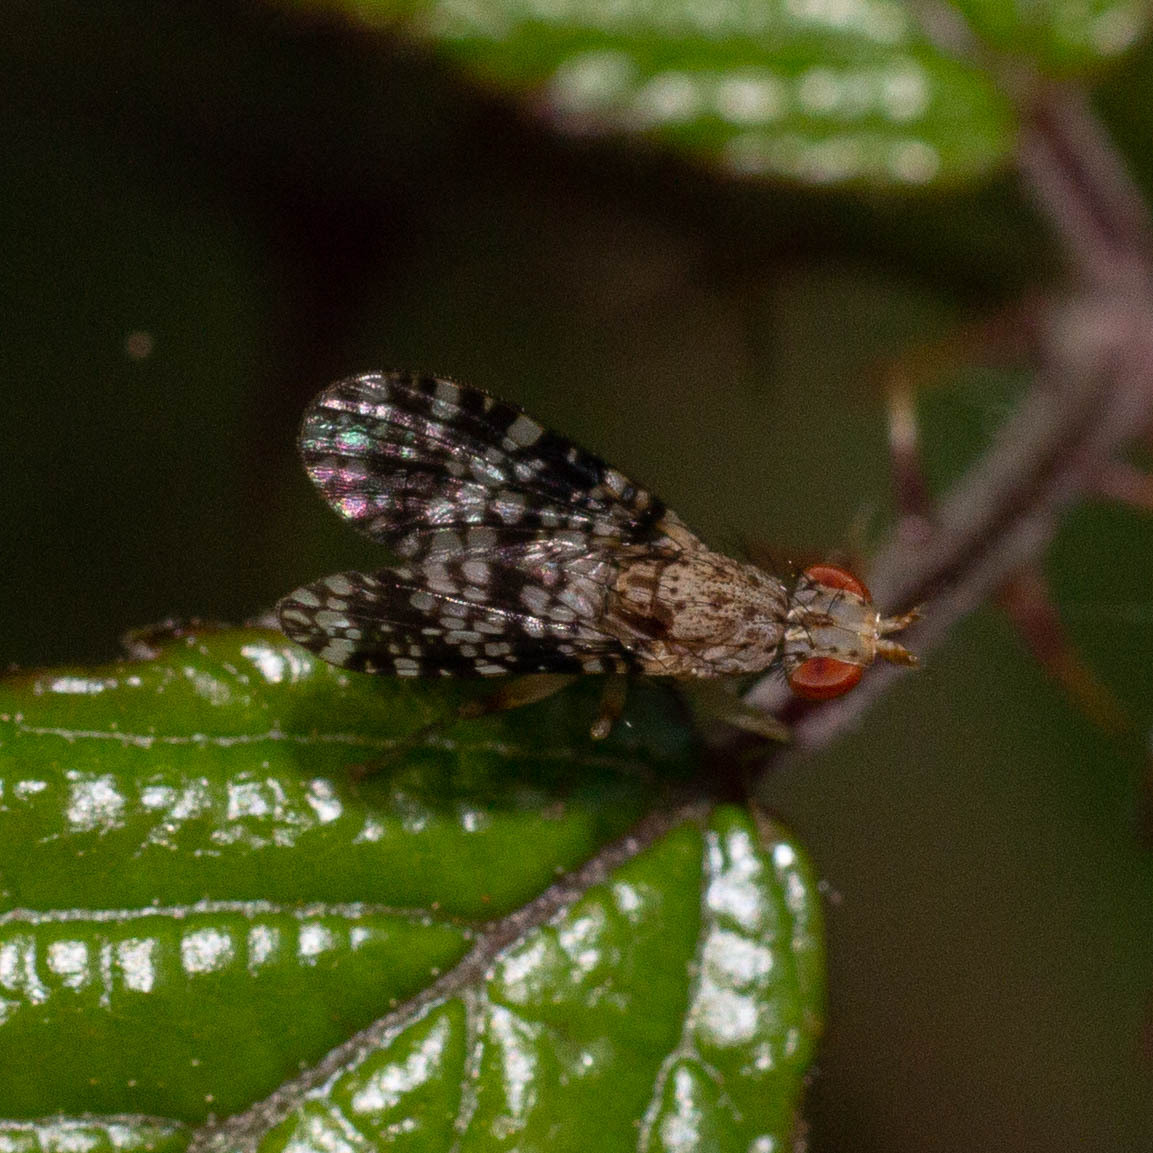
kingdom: Animalia
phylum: Arthropoda
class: Insecta
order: Diptera
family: Sciomyzidae
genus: Trypetoptera
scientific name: Trypetoptera punctulata
